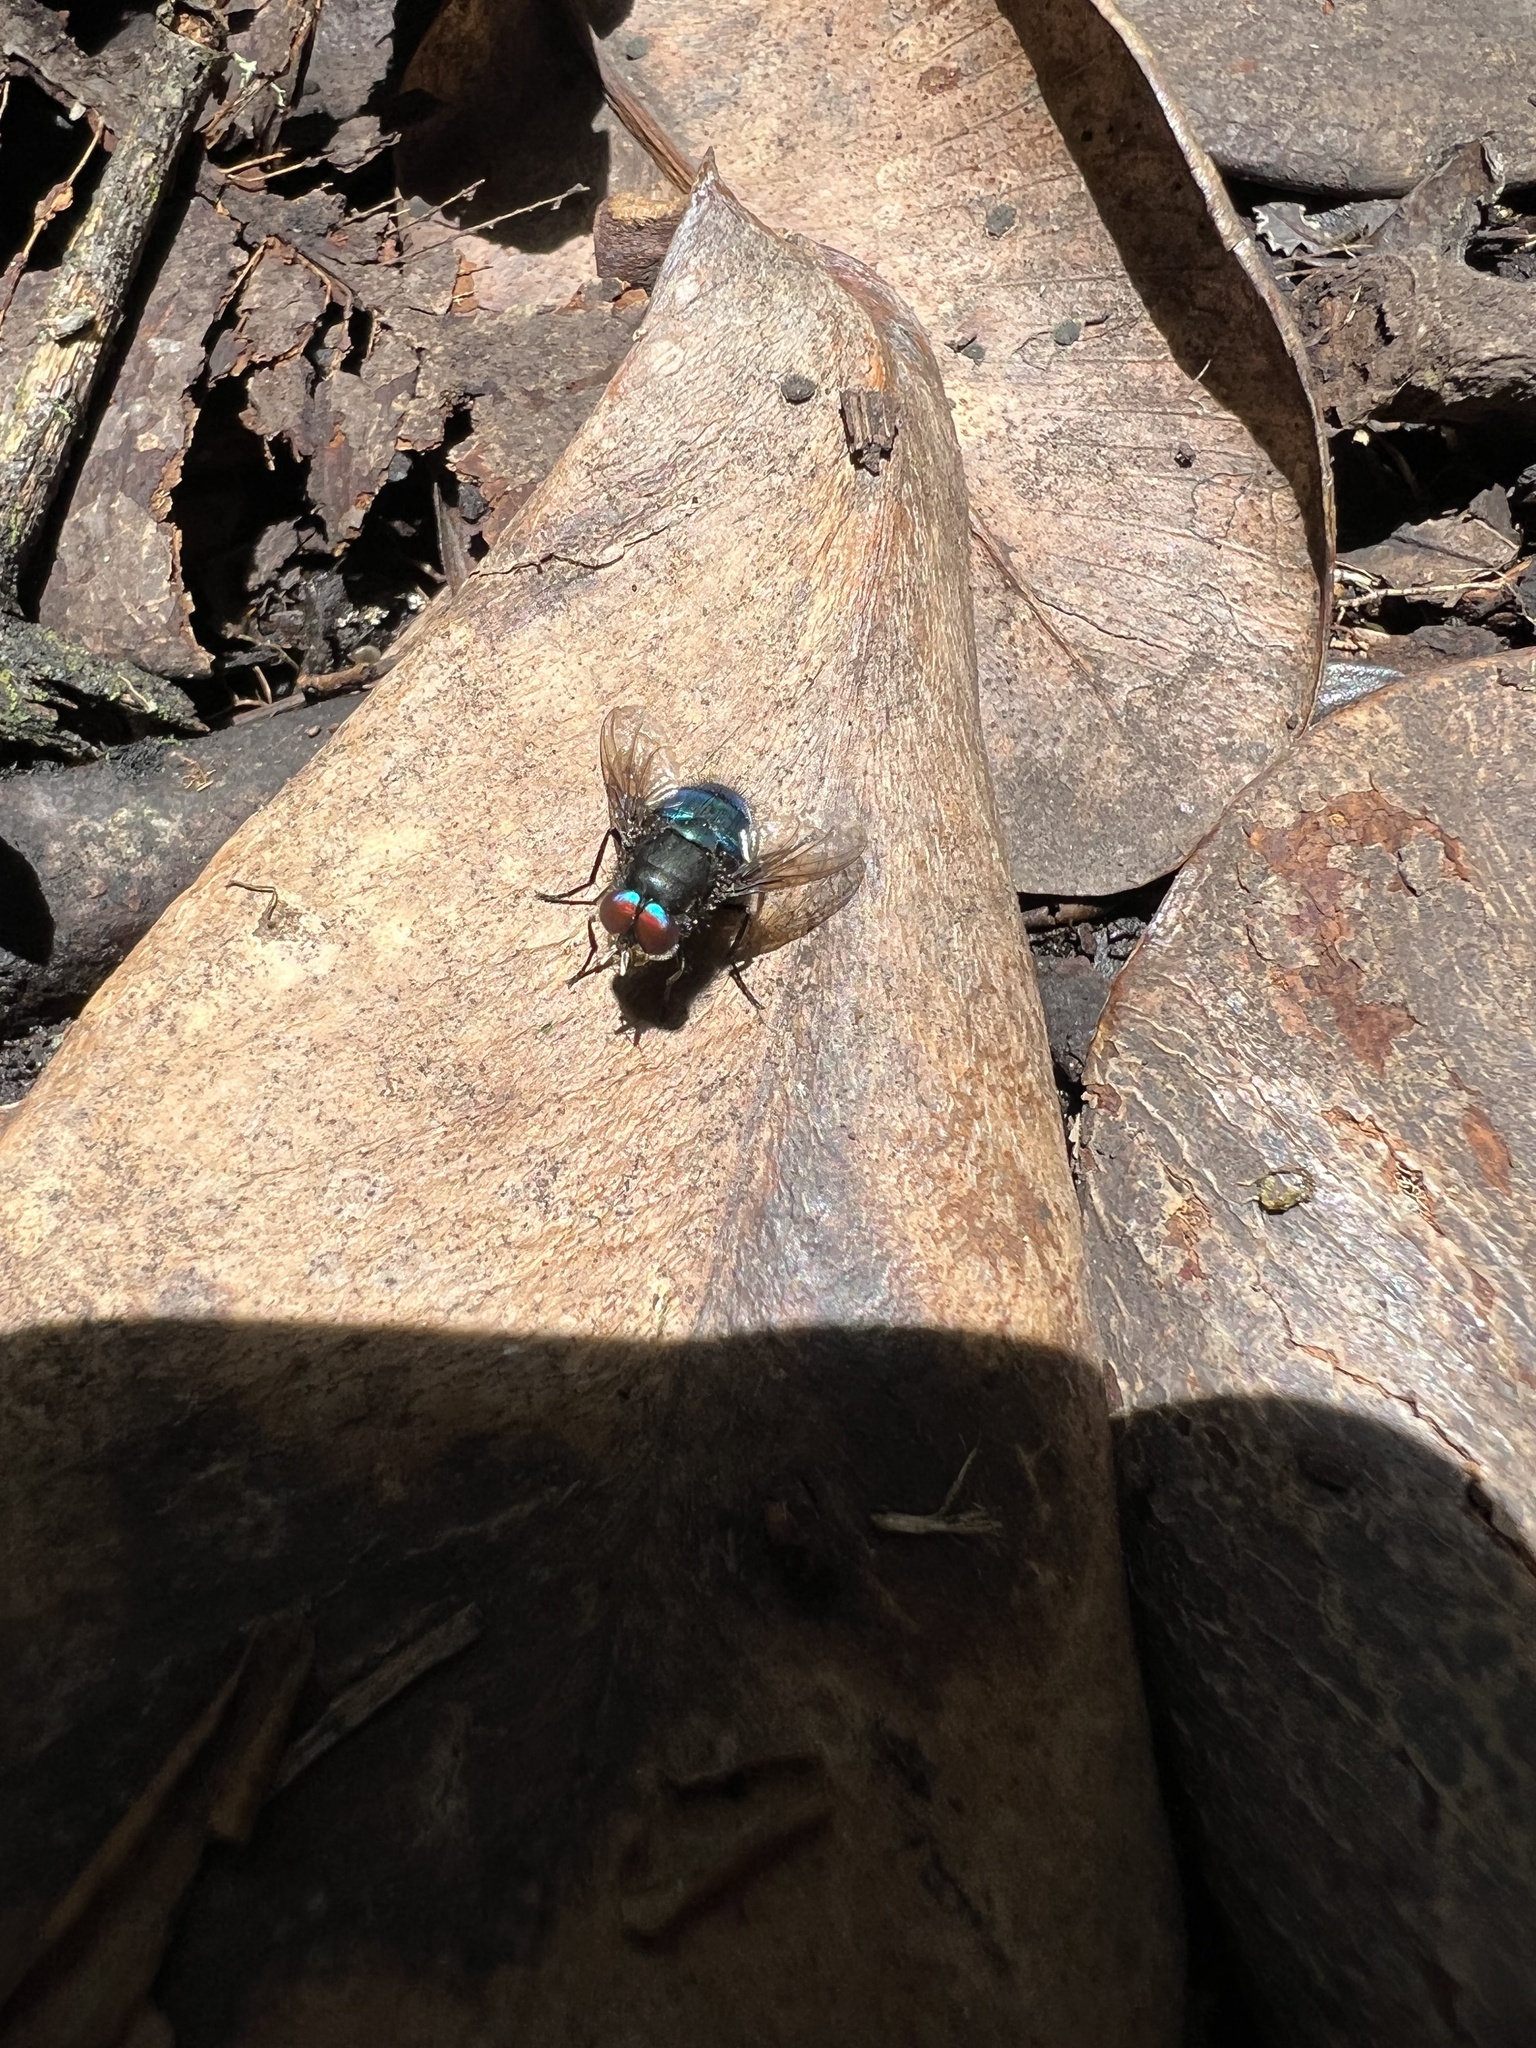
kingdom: Animalia
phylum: Arthropoda
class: Insecta
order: Diptera
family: Calliphoridae
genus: Sarconesia
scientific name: Sarconesia roraima
